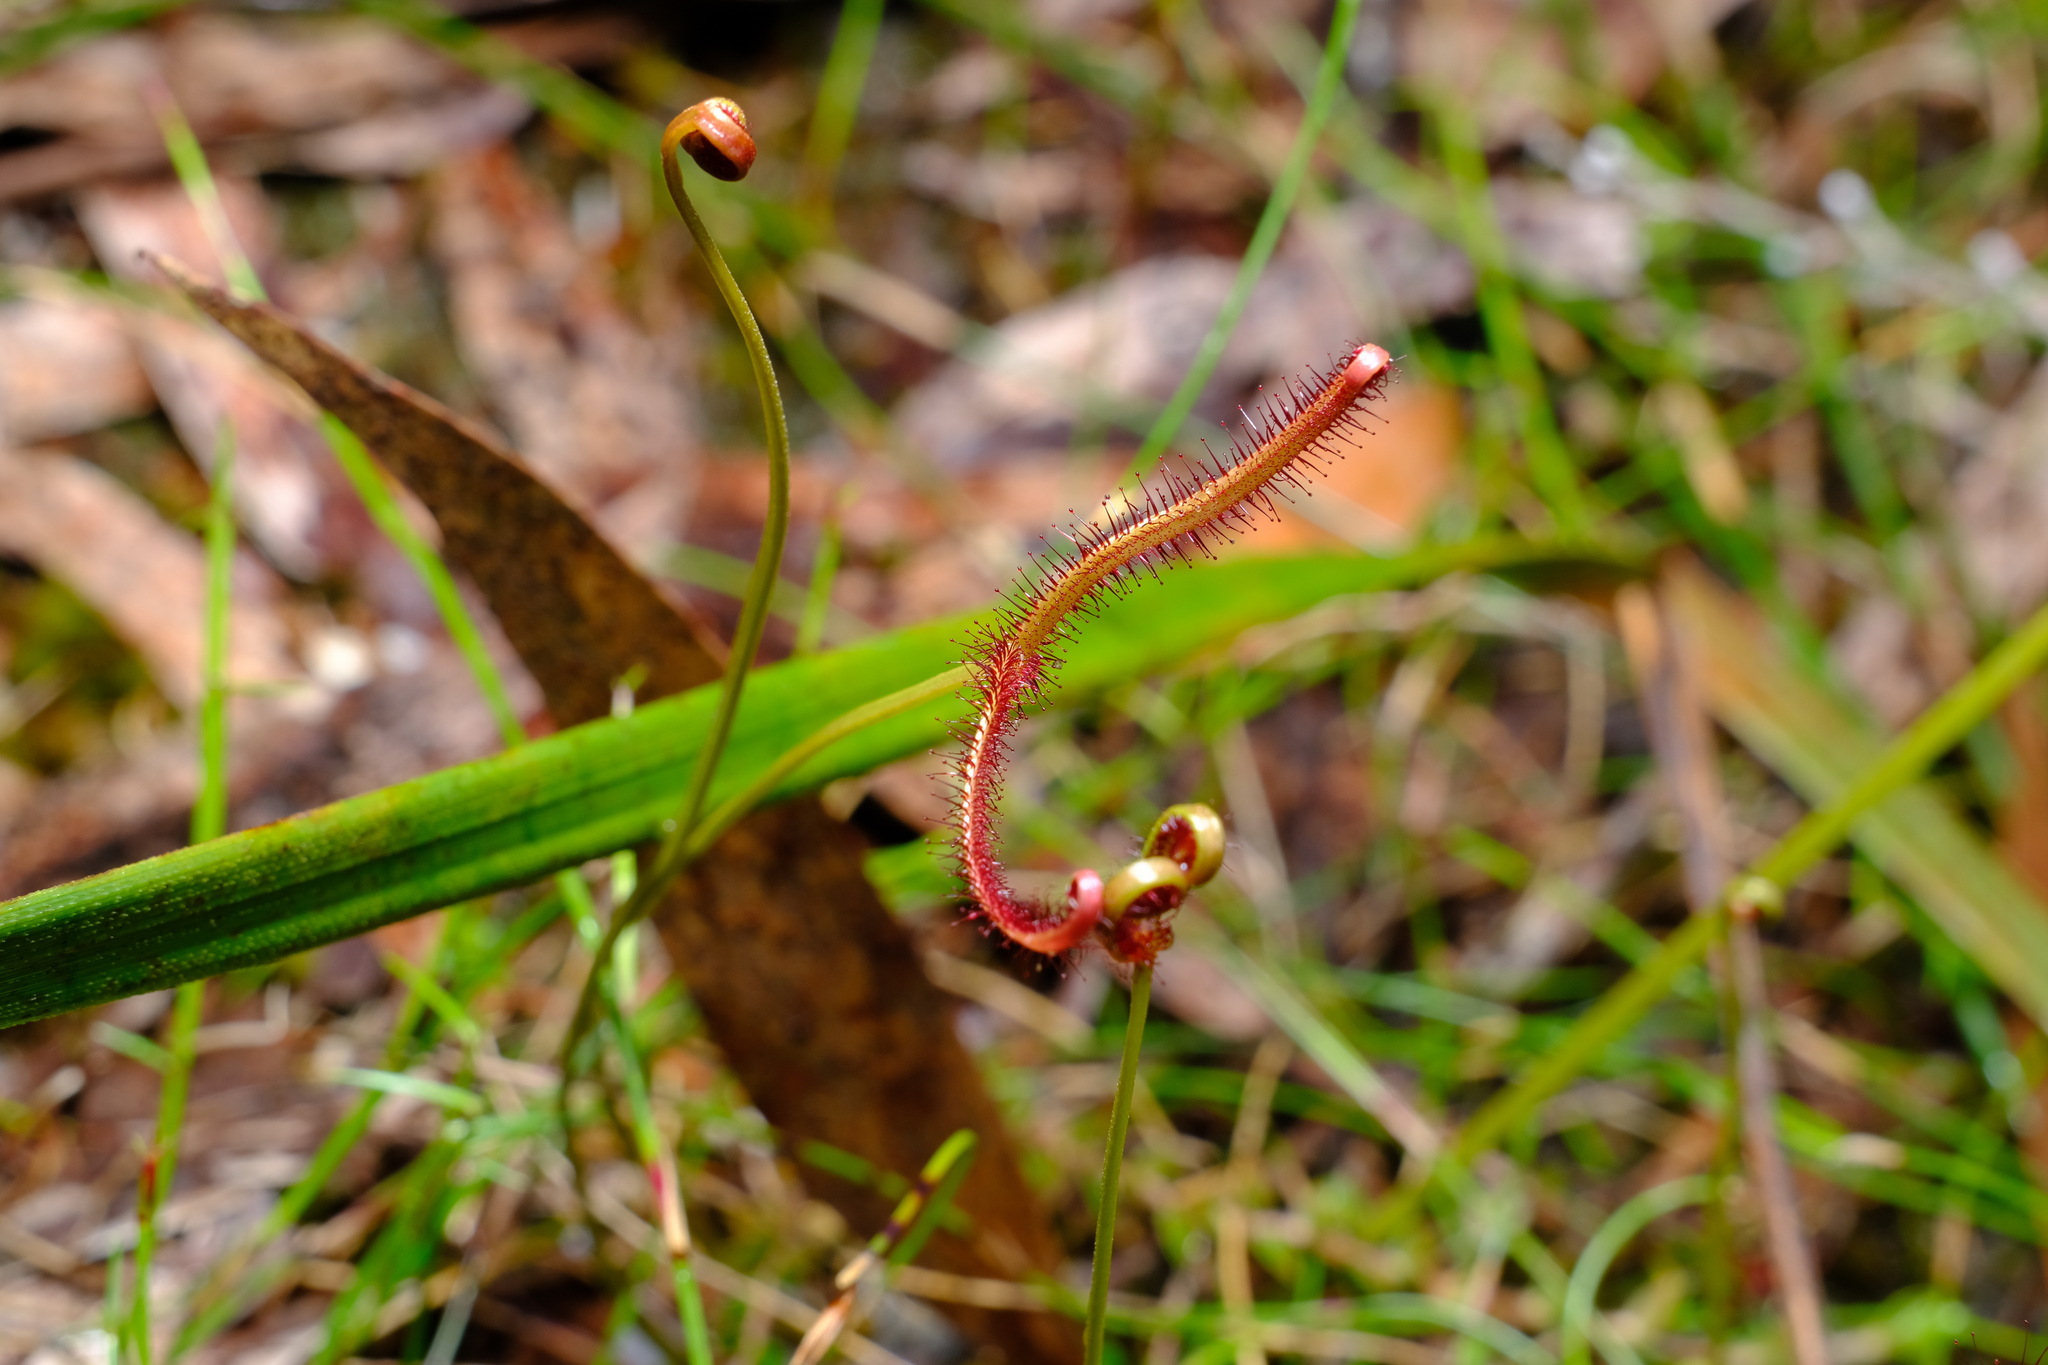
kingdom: Plantae
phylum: Tracheophyta
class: Magnoliopsida
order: Caryophyllales
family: Droseraceae
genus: Drosera
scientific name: Drosera binata
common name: Forked sundew
